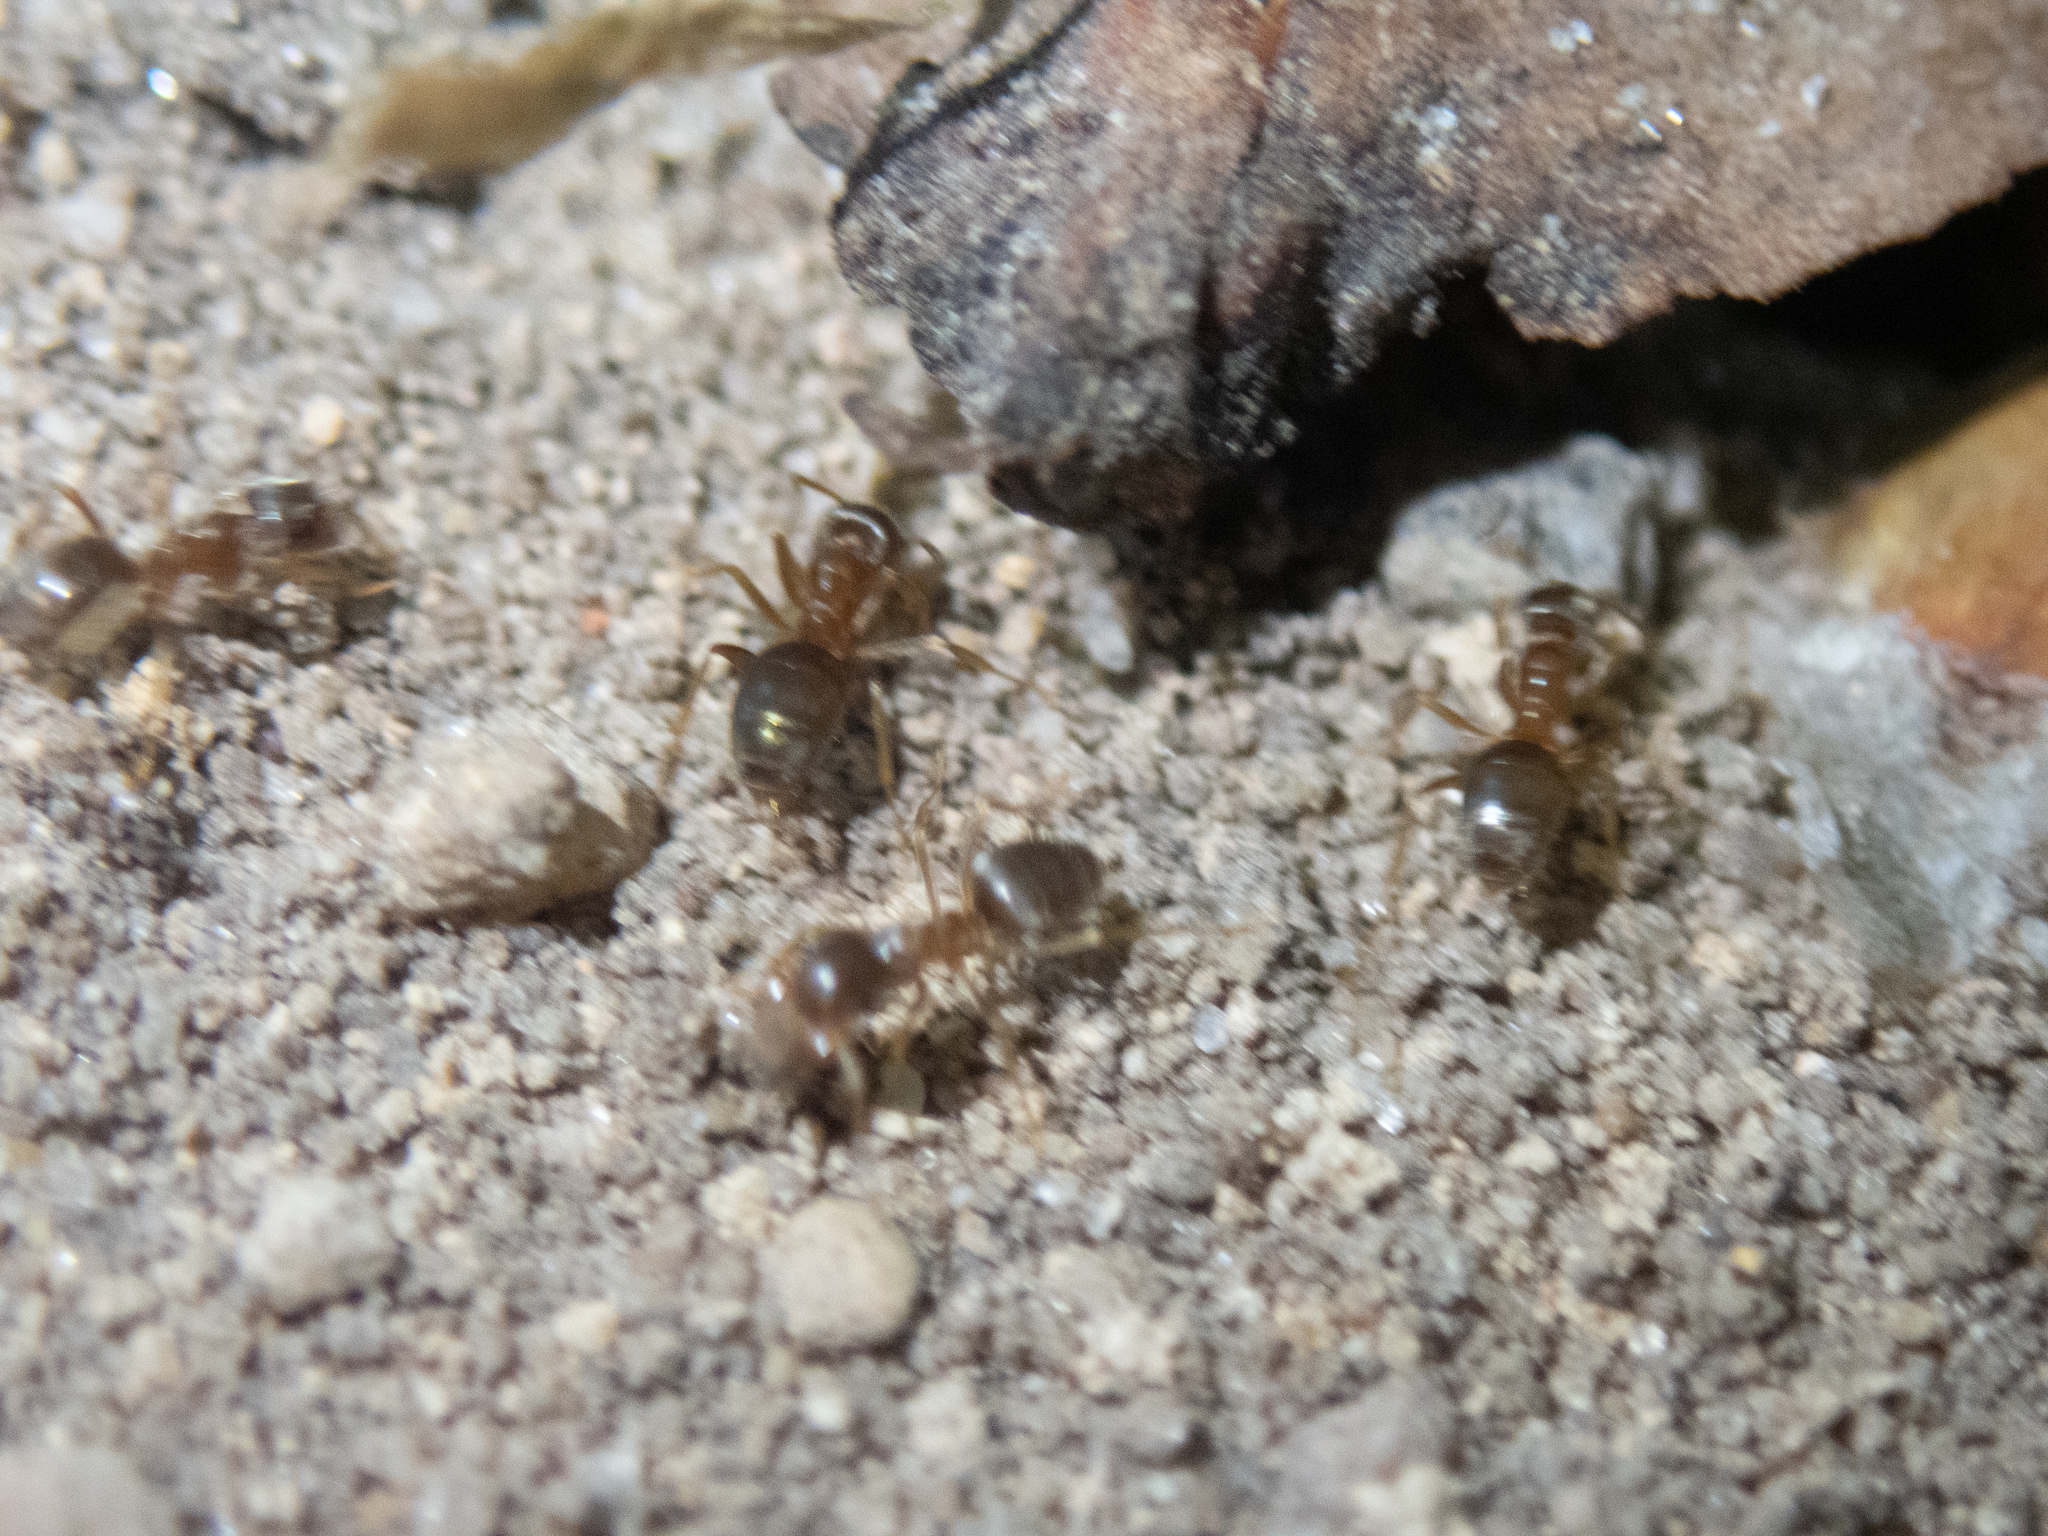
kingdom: Animalia
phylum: Arthropoda
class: Insecta
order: Hymenoptera
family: Formicidae
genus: Lasius
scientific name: Lasius neoniger
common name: Turfgrass ant
